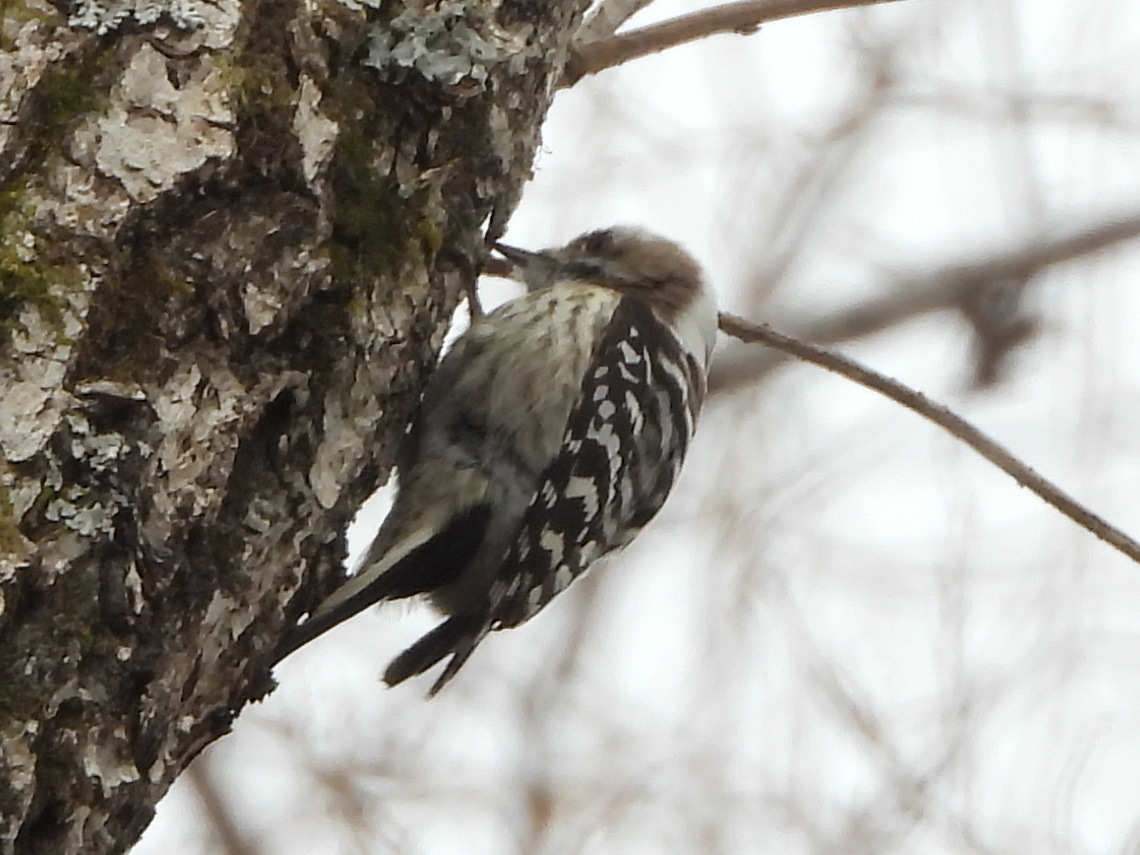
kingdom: Animalia
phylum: Chordata
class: Aves
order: Piciformes
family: Picidae
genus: Yungipicus
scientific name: Yungipicus kizuki
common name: Japanese pygmy woodpecker
